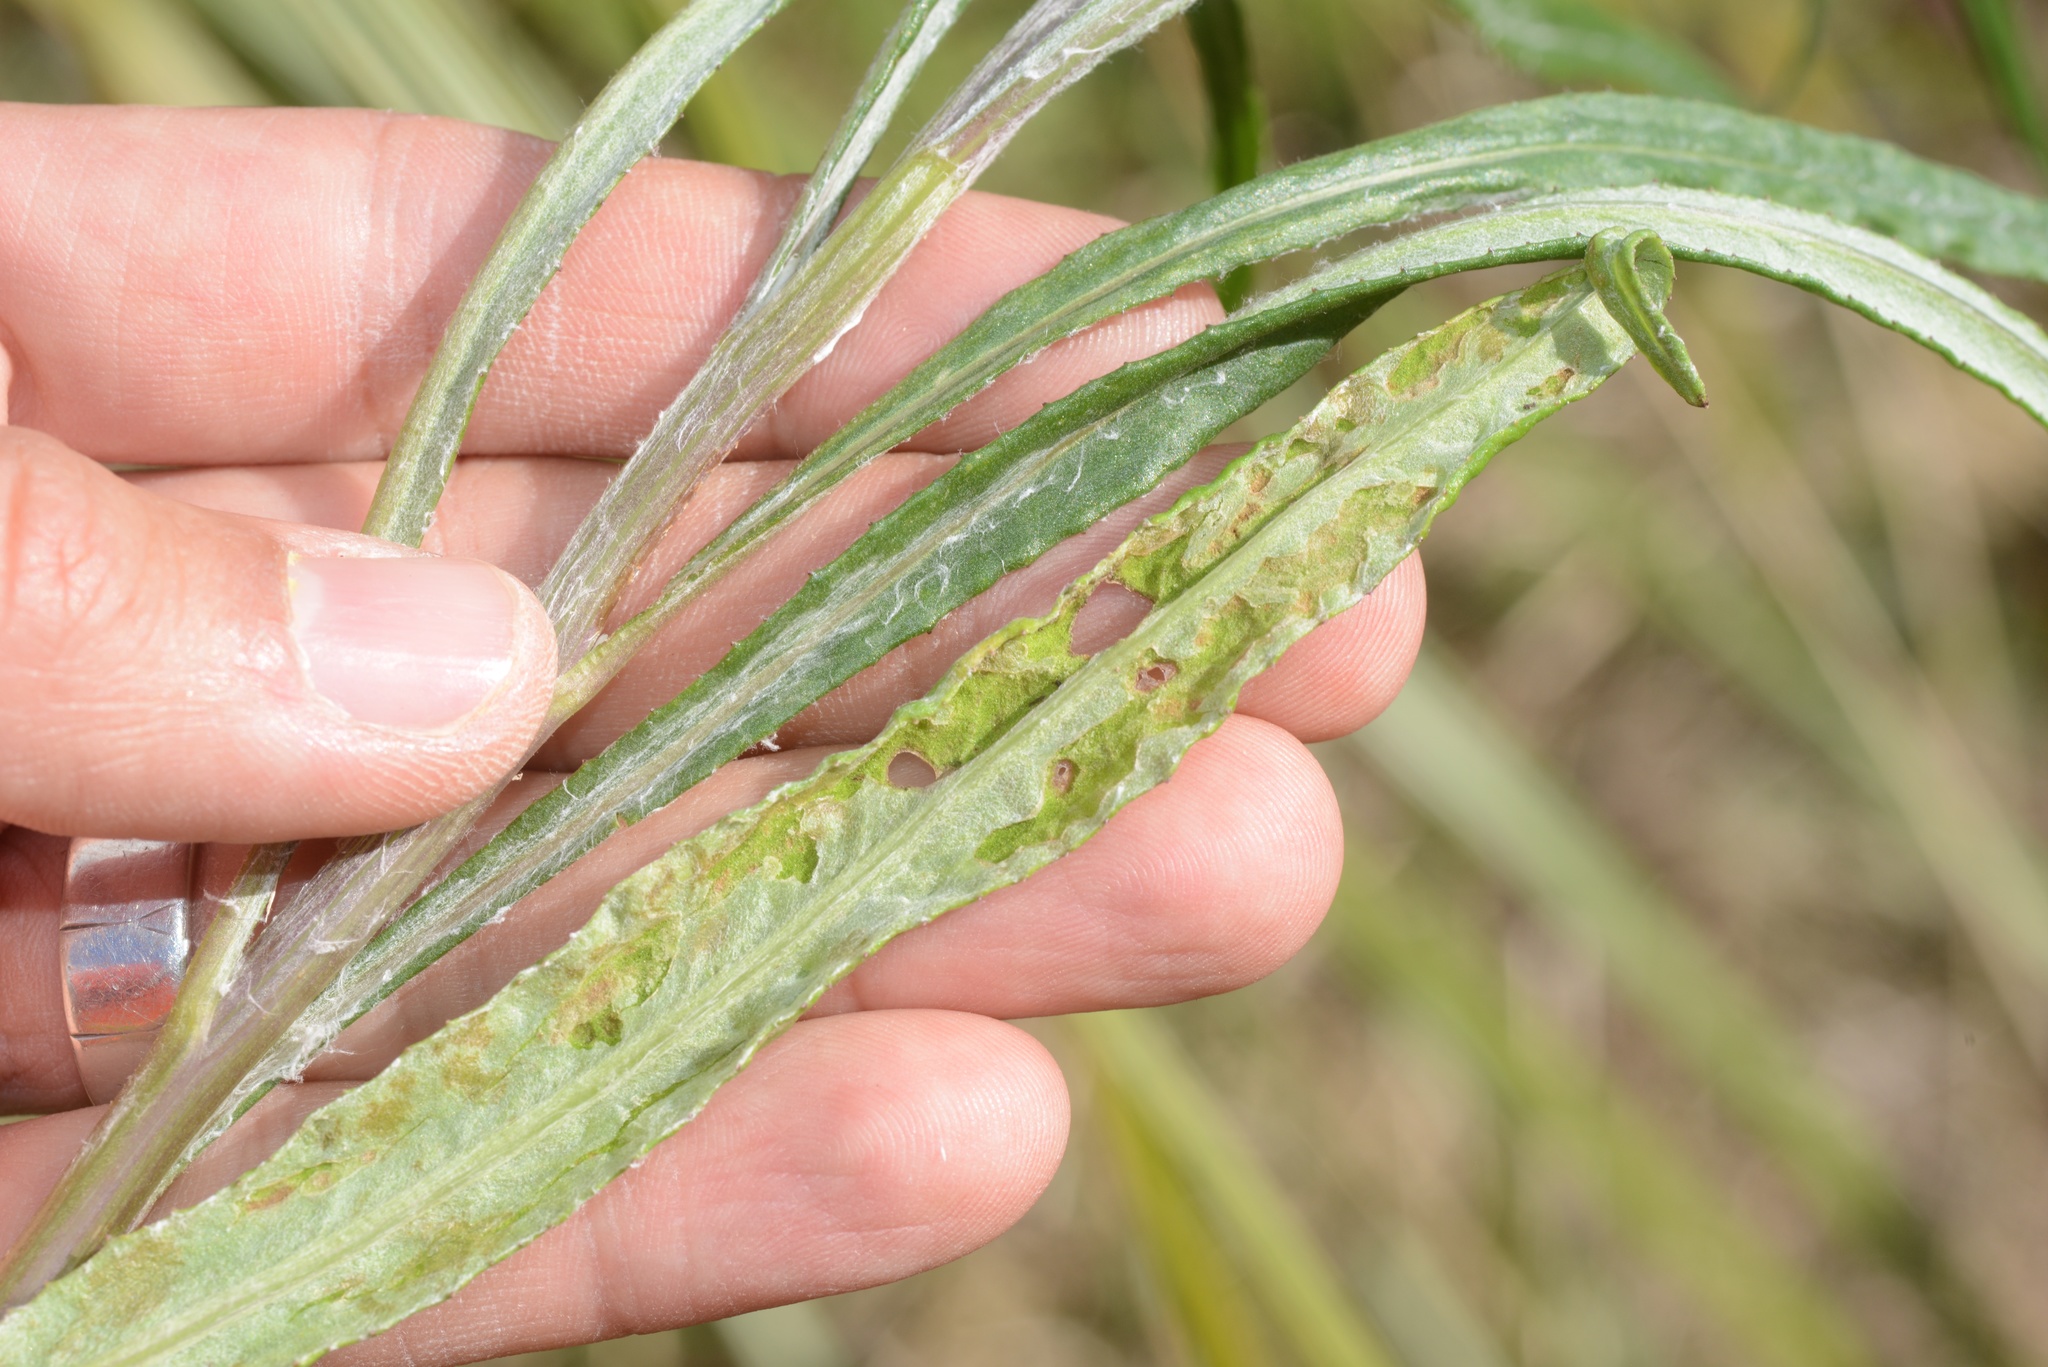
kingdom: Plantae
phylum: Tracheophyta
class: Magnoliopsida
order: Asterales
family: Asteraceae
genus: Senecio
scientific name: Senecio quadridentatus
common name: Cotton fireweed
